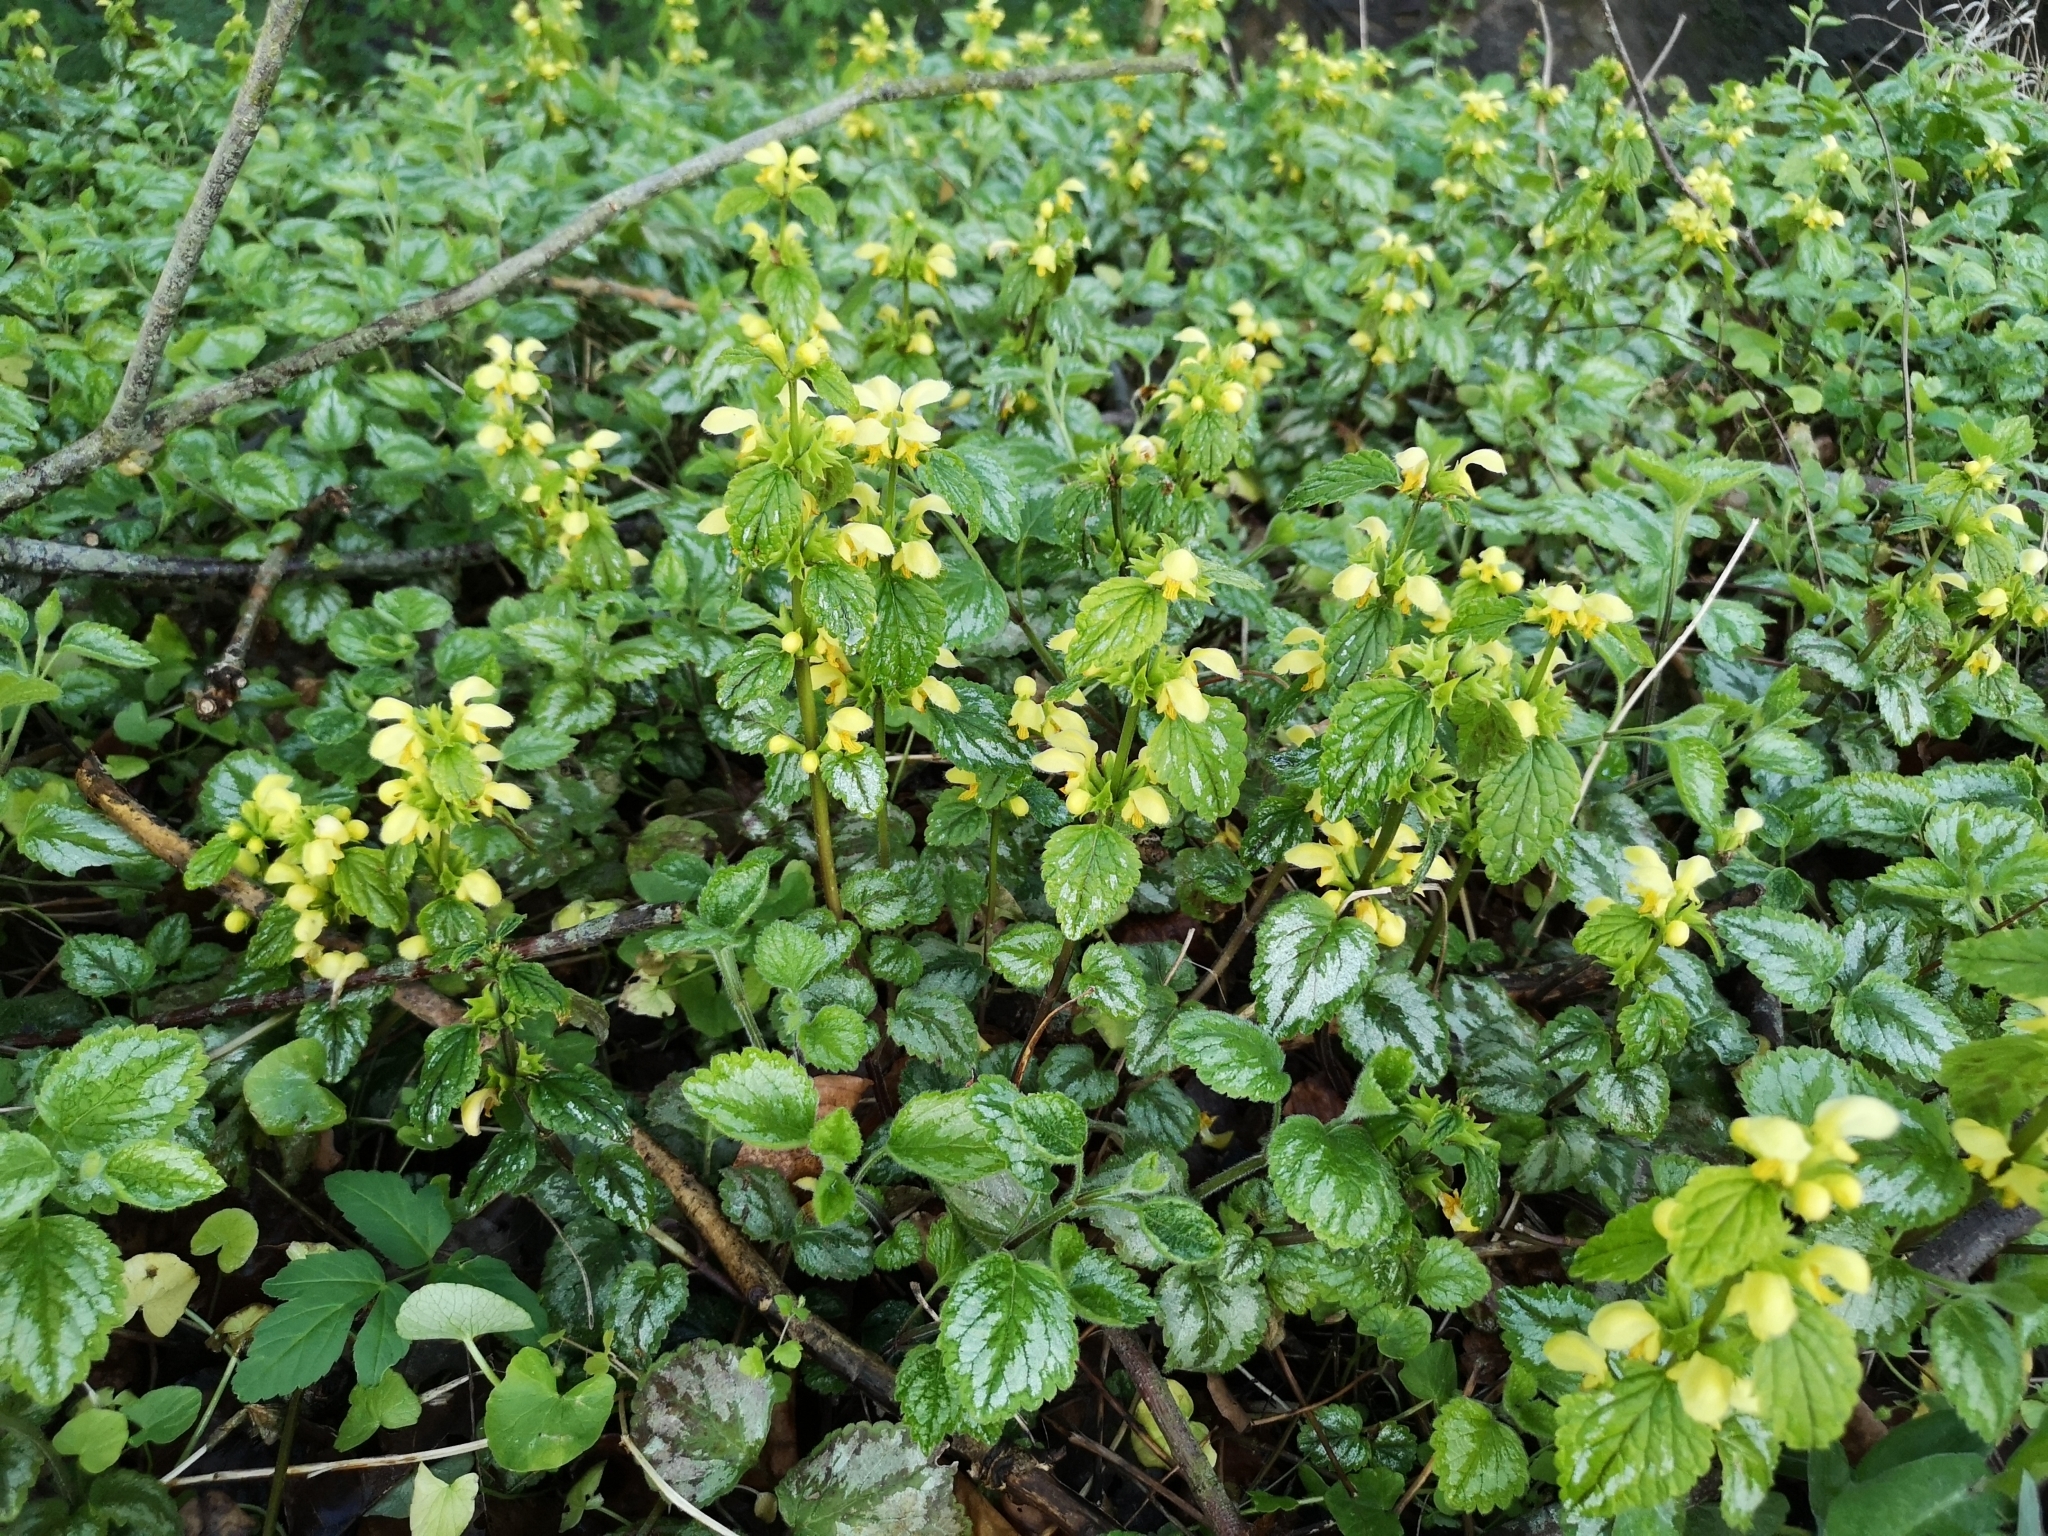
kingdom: Plantae
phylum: Tracheophyta
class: Magnoliopsida
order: Lamiales
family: Lamiaceae
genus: Lamium
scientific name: Lamium galeobdolon
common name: Yellow archangel
